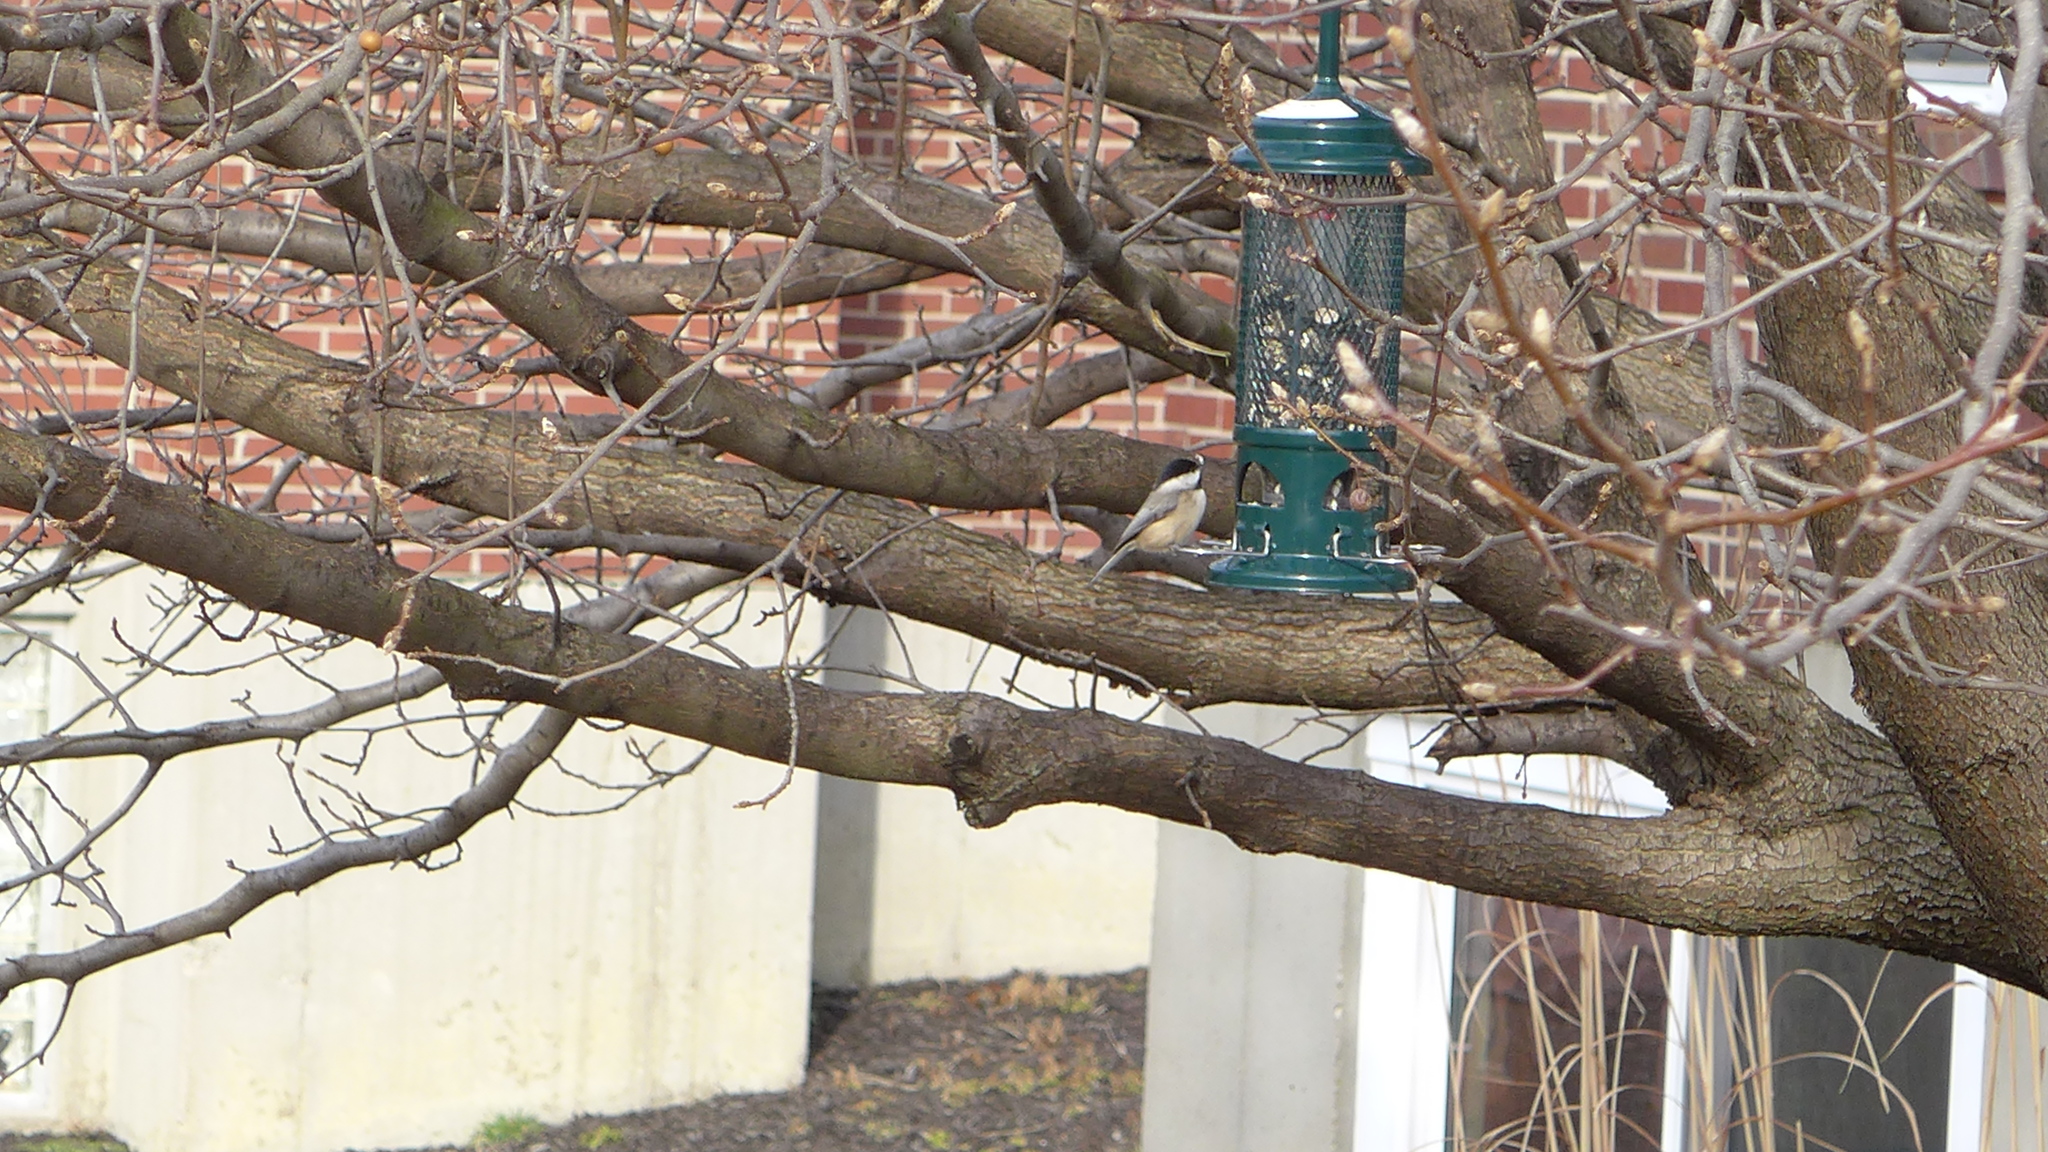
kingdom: Animalia
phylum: Chordata
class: Aves
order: Passeriformes
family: Paridae
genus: Poecile
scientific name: Poecile carolinensis
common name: Carolina chickadee
